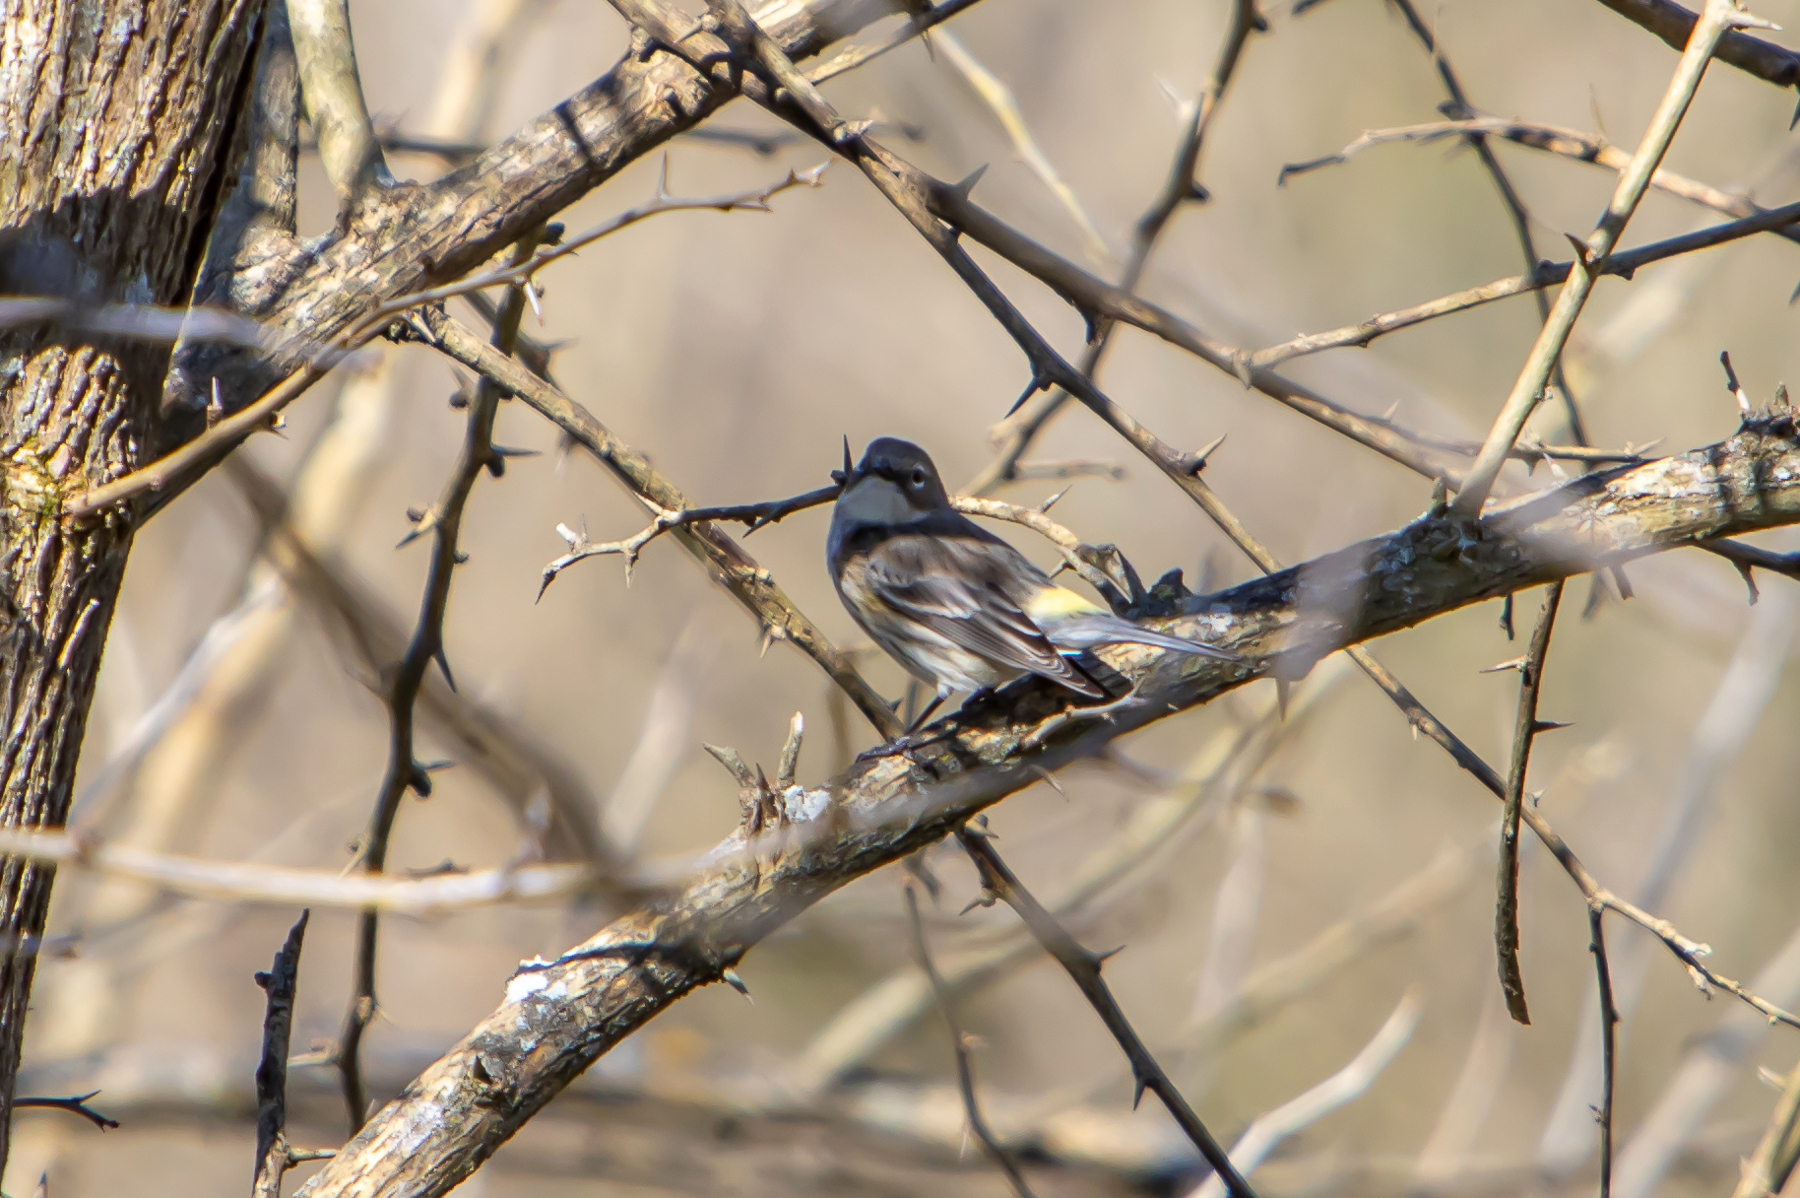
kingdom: Animalia
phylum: Chordata
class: Aves
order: Passeriformes
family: Parulidae
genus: Setophaga
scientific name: Setophaga coronata
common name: Myrtle warbler
